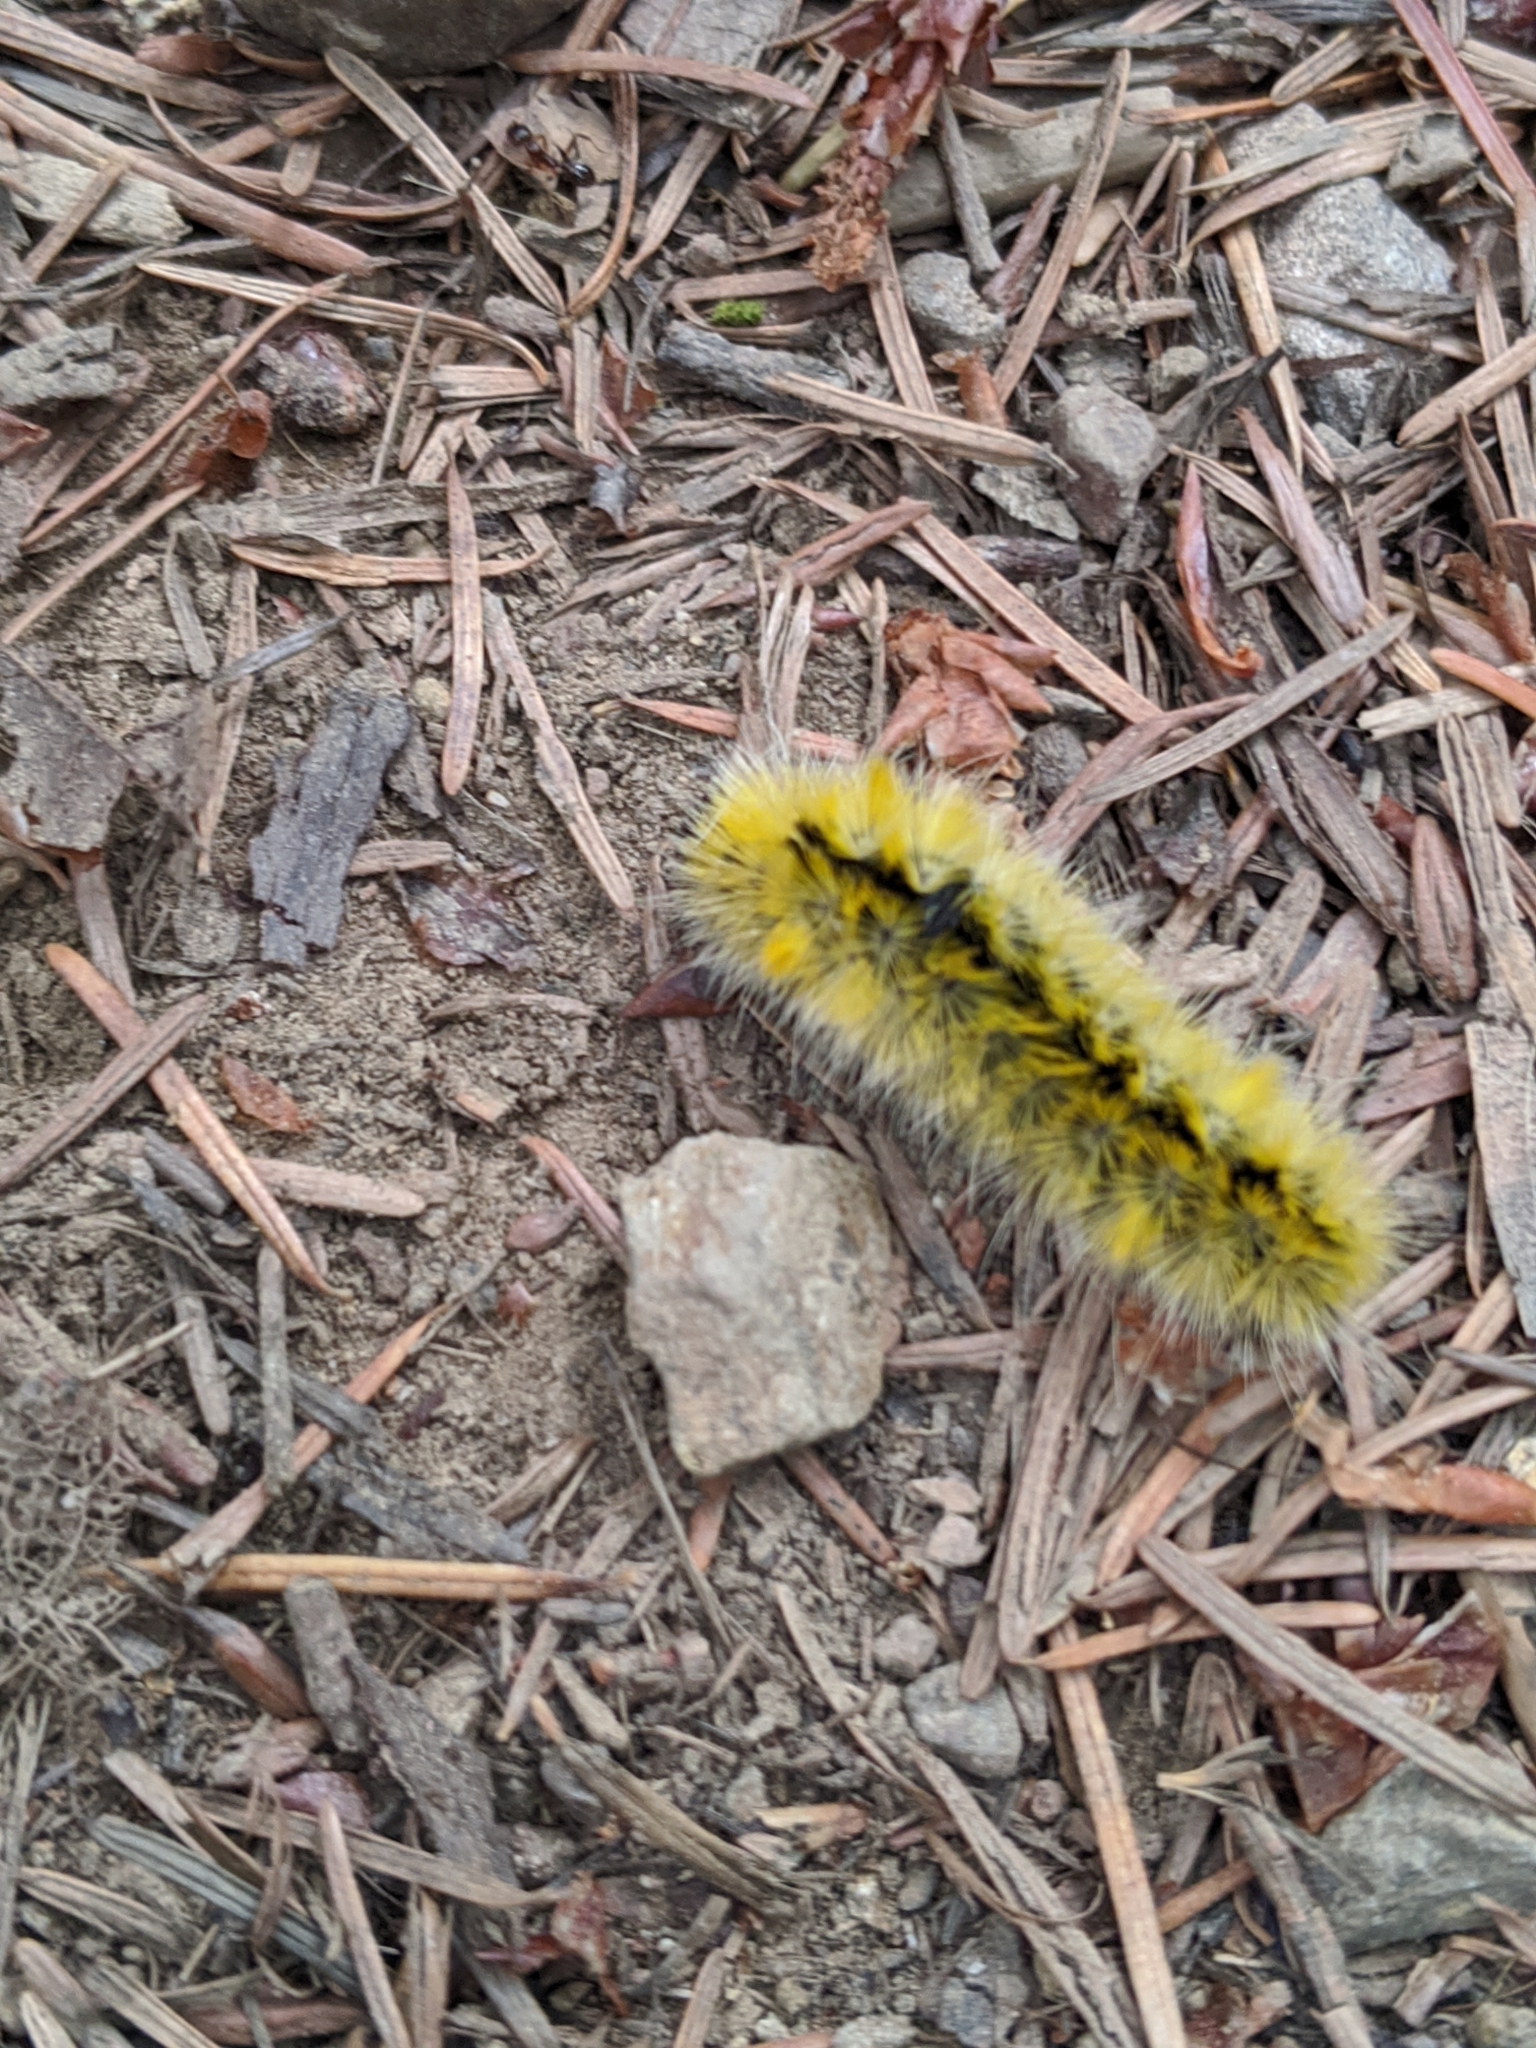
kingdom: Animalia
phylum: Arthropoda
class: Insecta
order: Lepidoptera
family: Erebidae
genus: Lophocampa
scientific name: Lophocampa argentata
